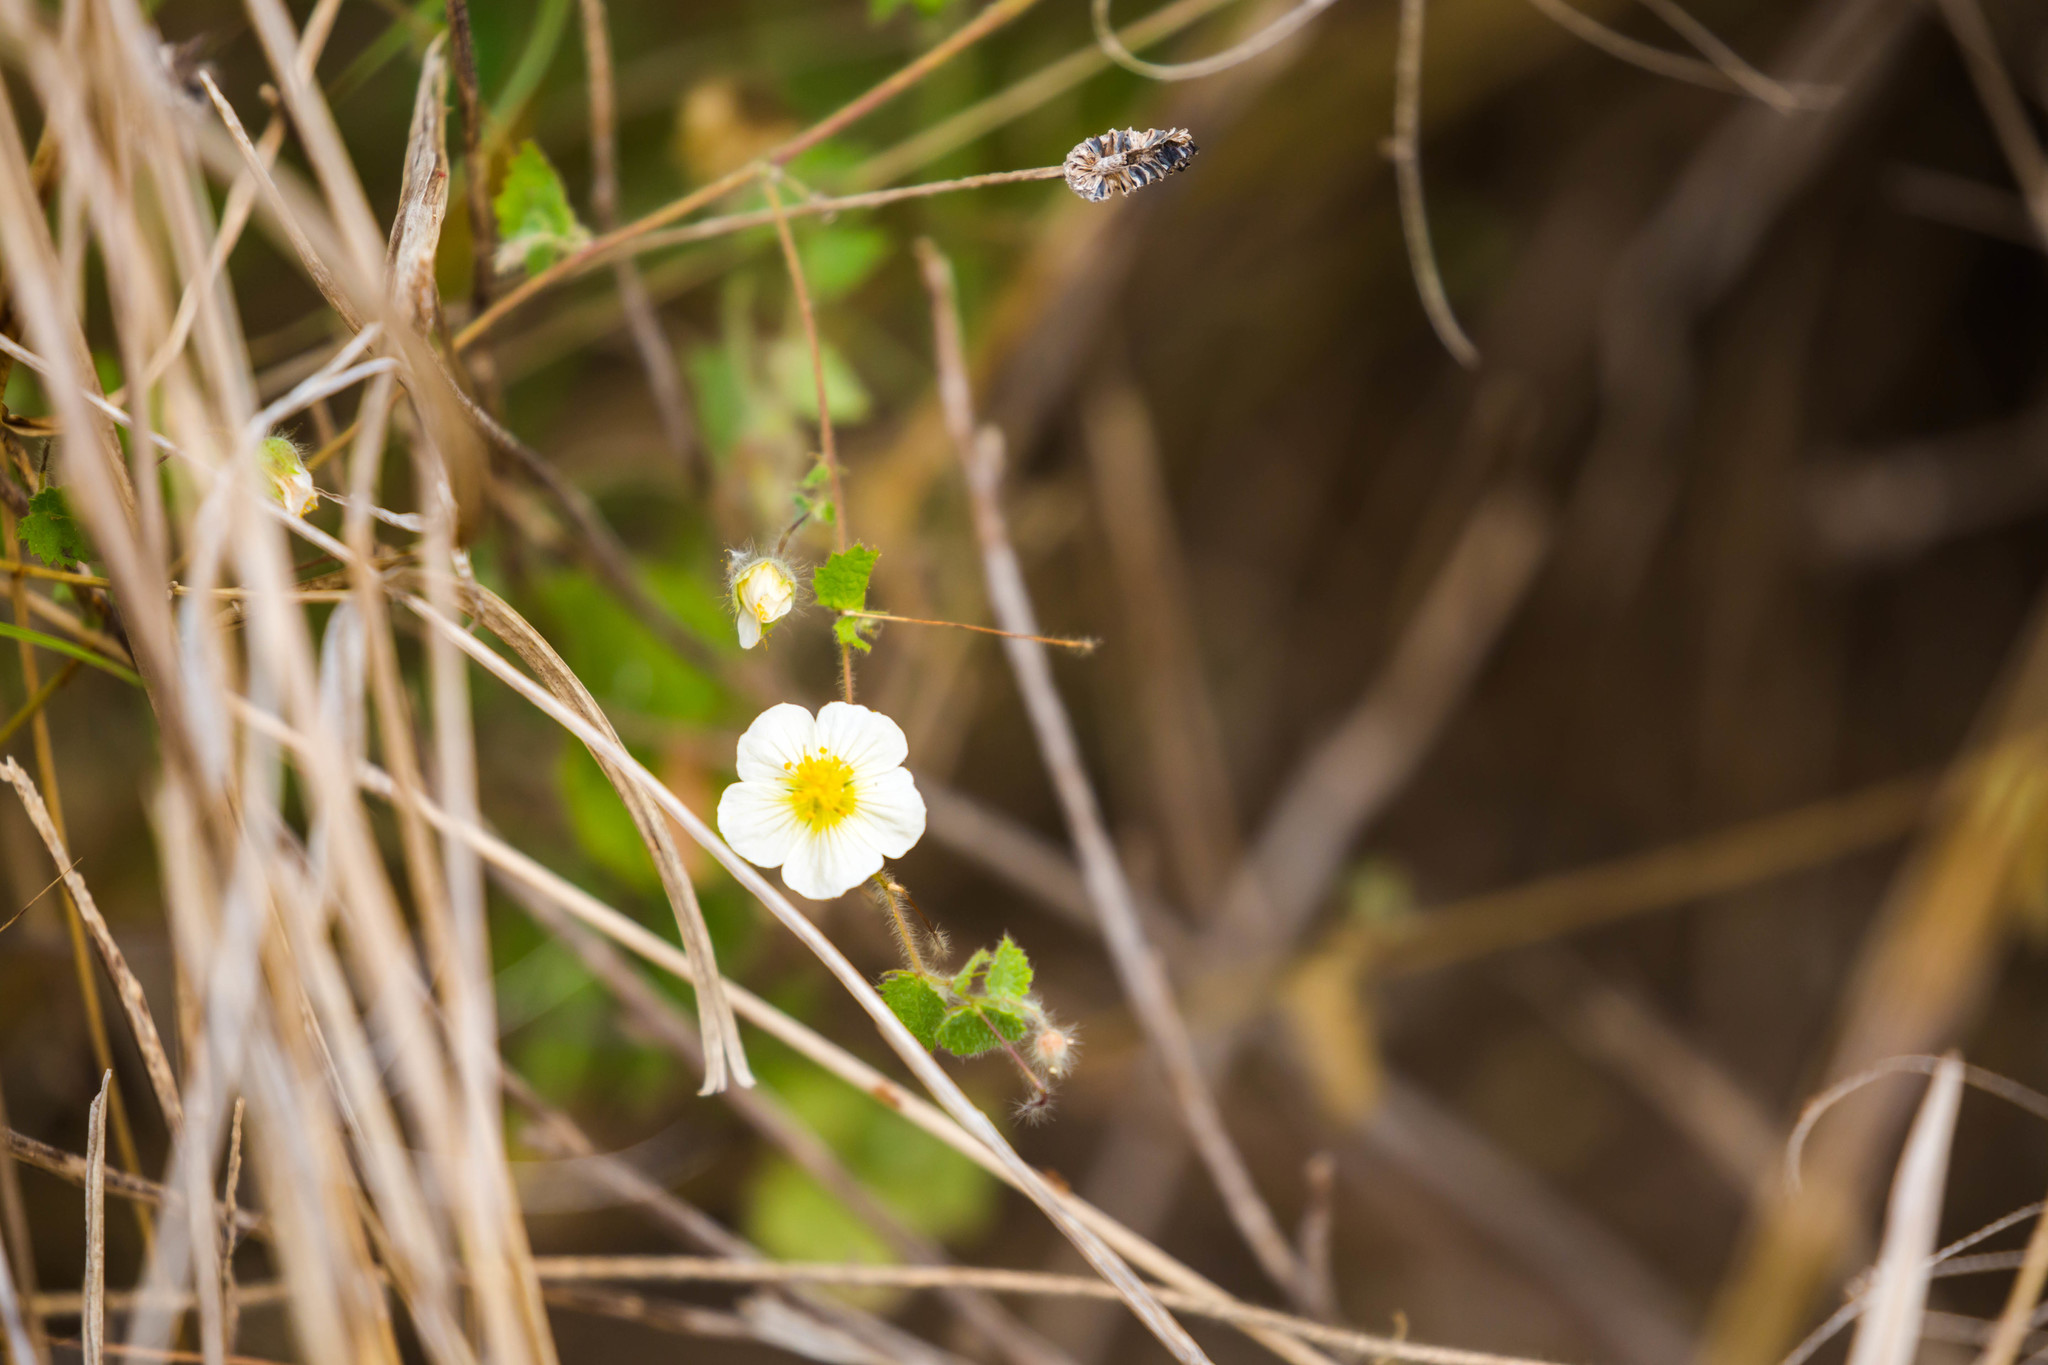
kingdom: Plantae
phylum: Tracheophyta
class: Magnoliopsida
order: Malvales
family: Malvaceae
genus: Herissantia
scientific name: Herissantia crispa
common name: Bladdermallow
